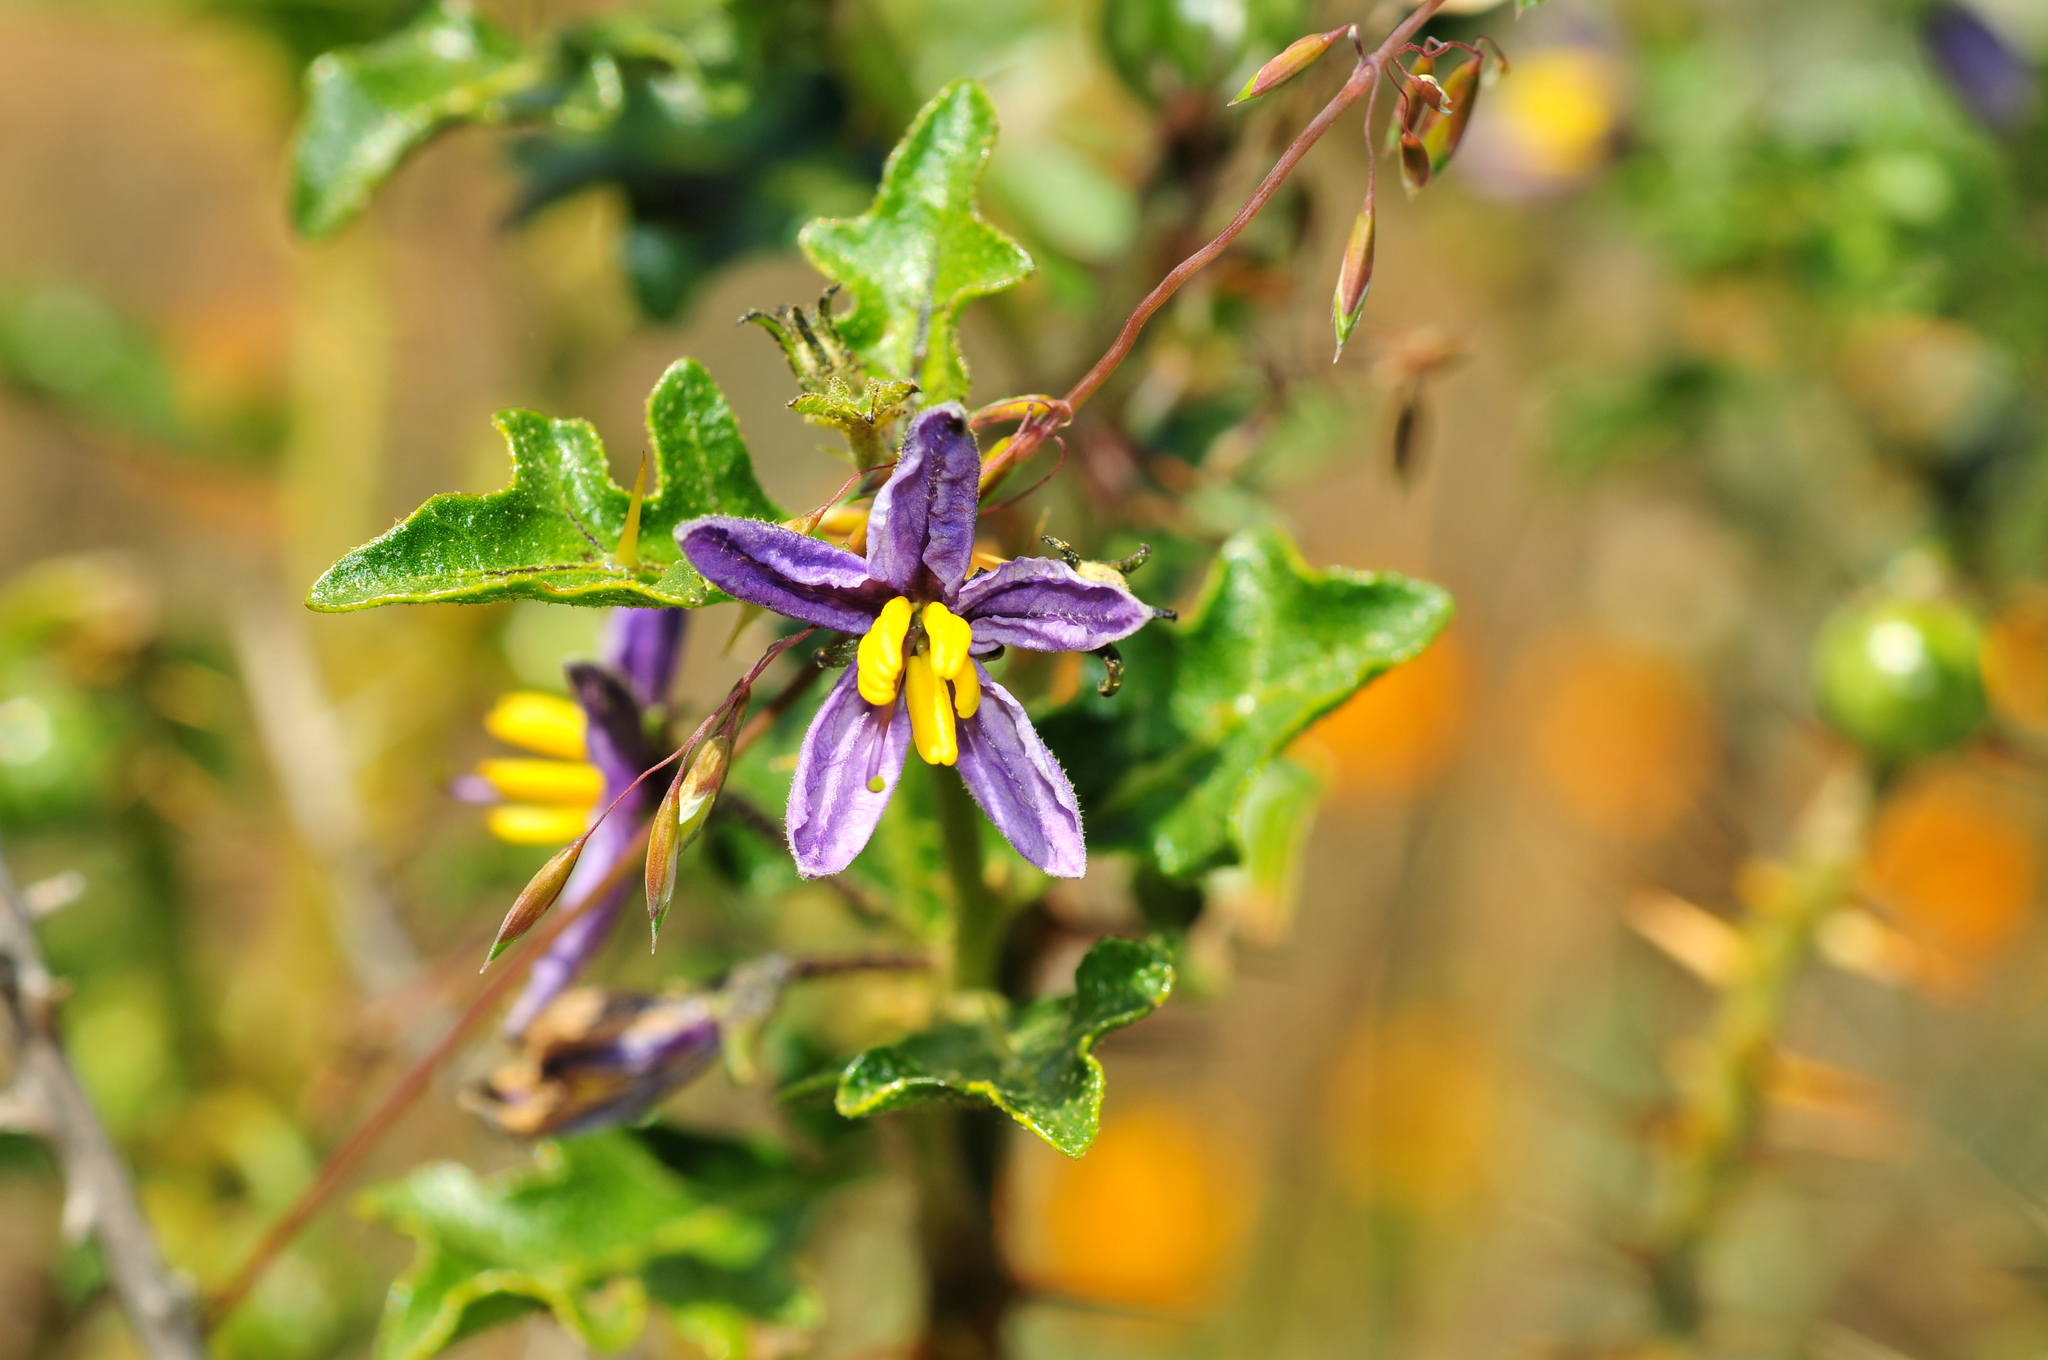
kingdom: Plantae
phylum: Tracheophyta
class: Magnoliopsida
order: Solanales
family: Solanaceae
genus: Solanum
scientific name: Solanum humile
